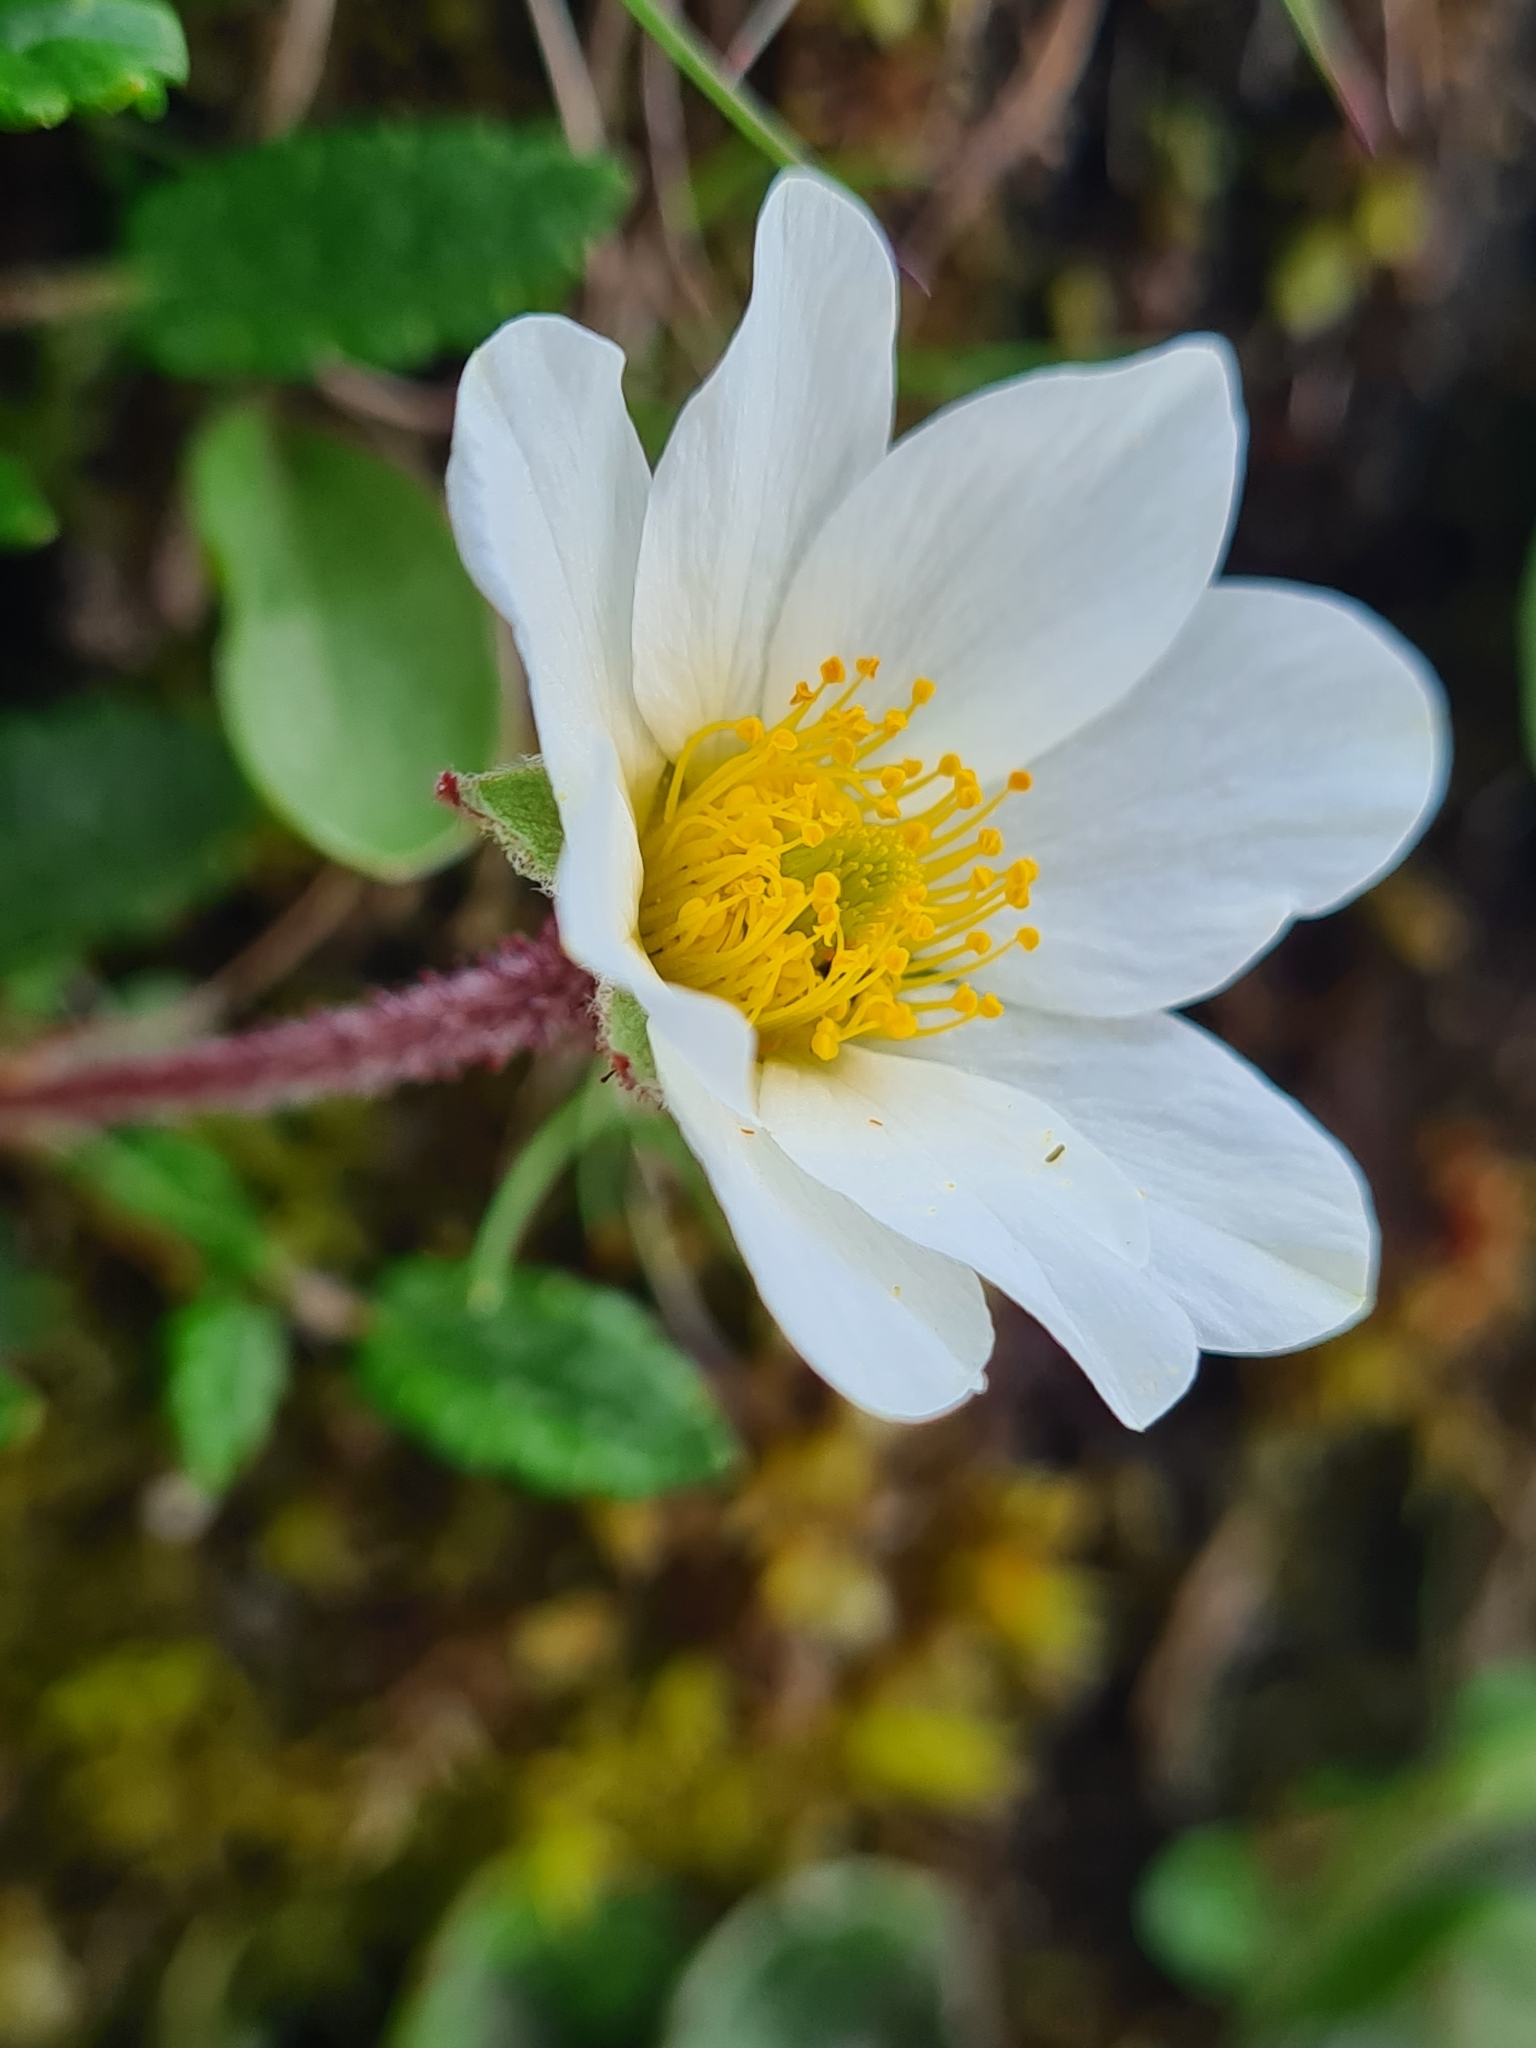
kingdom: Plantae
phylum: Tracheophyta
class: Magnoliopsida
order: Rosales
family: Rosaceae
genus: Dryas
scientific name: Dryas octopetala
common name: Eight-petal mountain-avens
